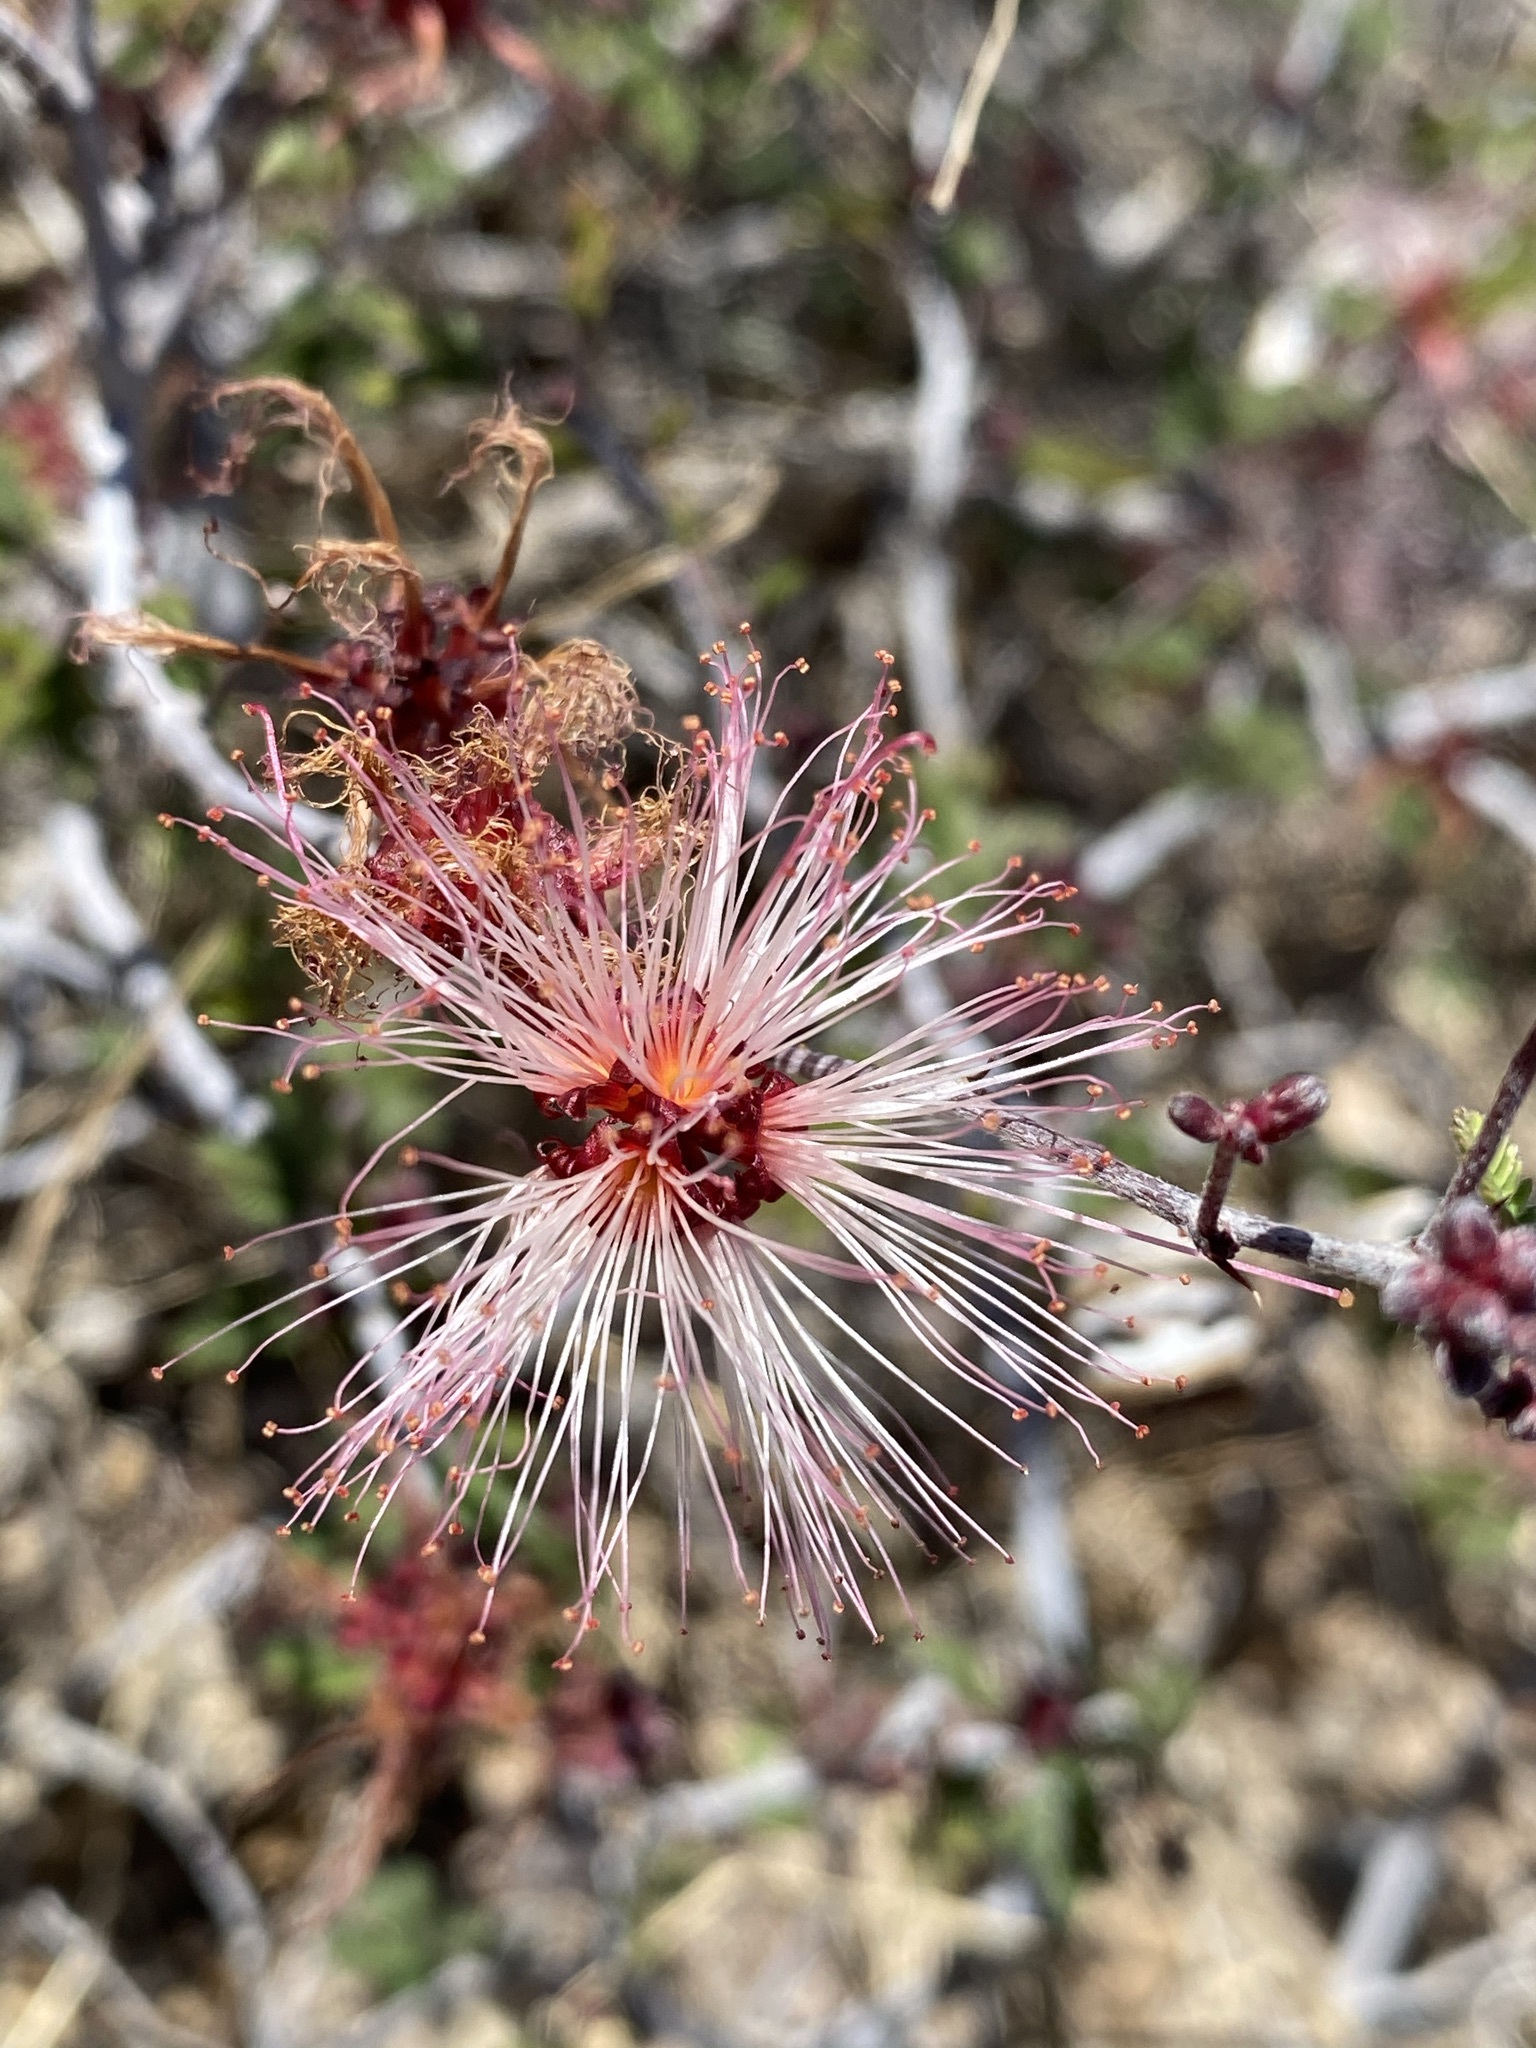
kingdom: Plantae
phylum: Tracheophyta
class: Magnoliopsida
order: Fabales
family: Fabaceae
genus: Calliandra
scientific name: Calliandra eriophylla
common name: Fairy-duster
